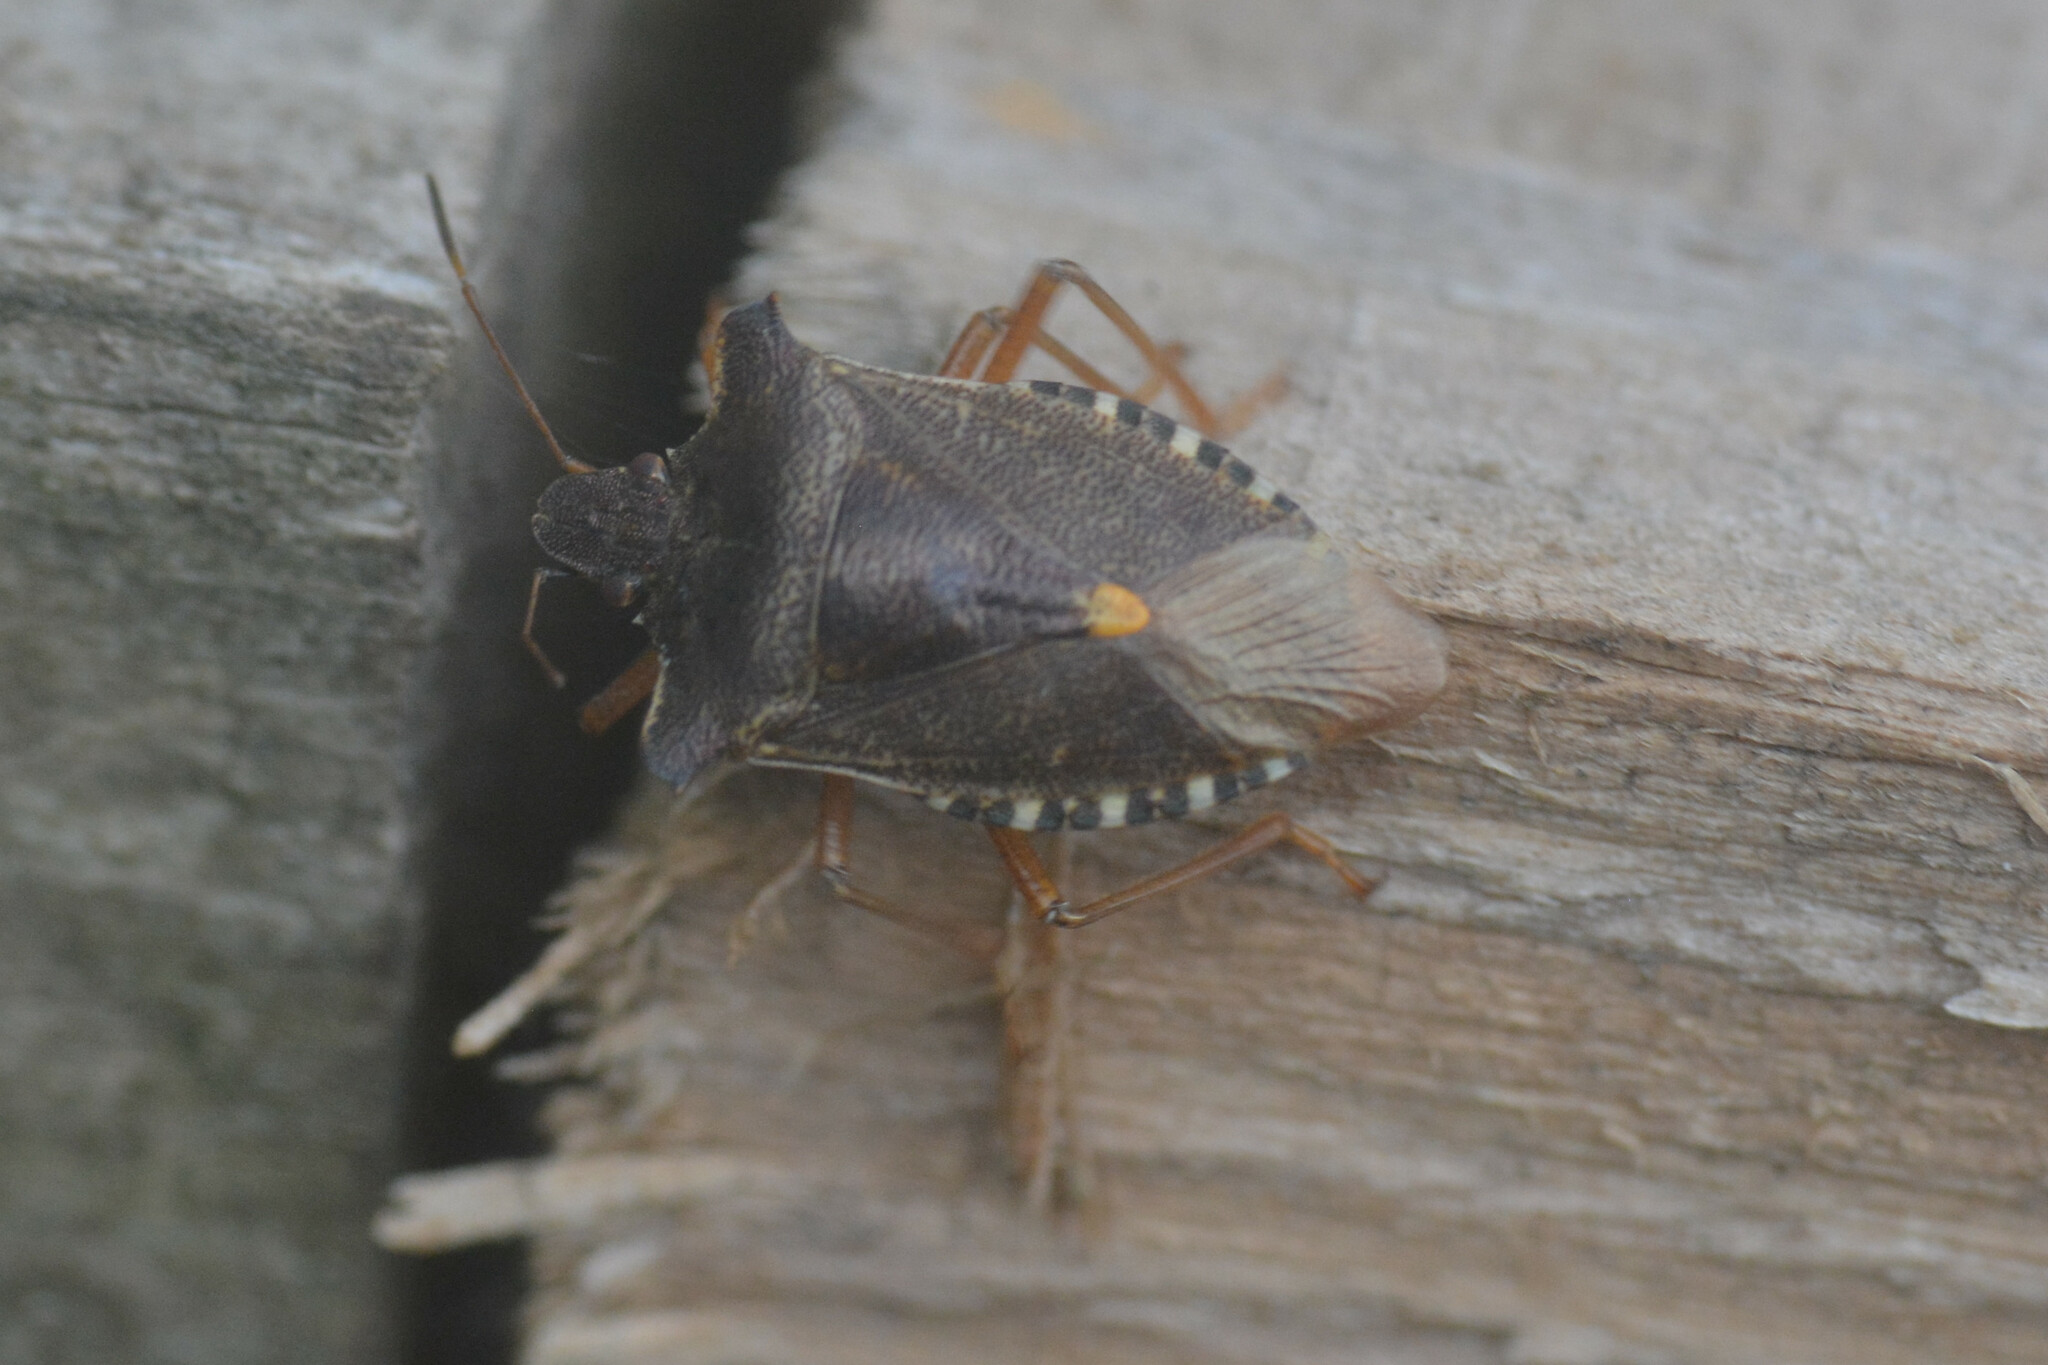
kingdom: Animalia
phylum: Arthropoda
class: Insecta
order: Hemiptera
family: Pentatomidae
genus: Pentatoma
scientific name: Pentatoma rufipes
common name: Forest bug
